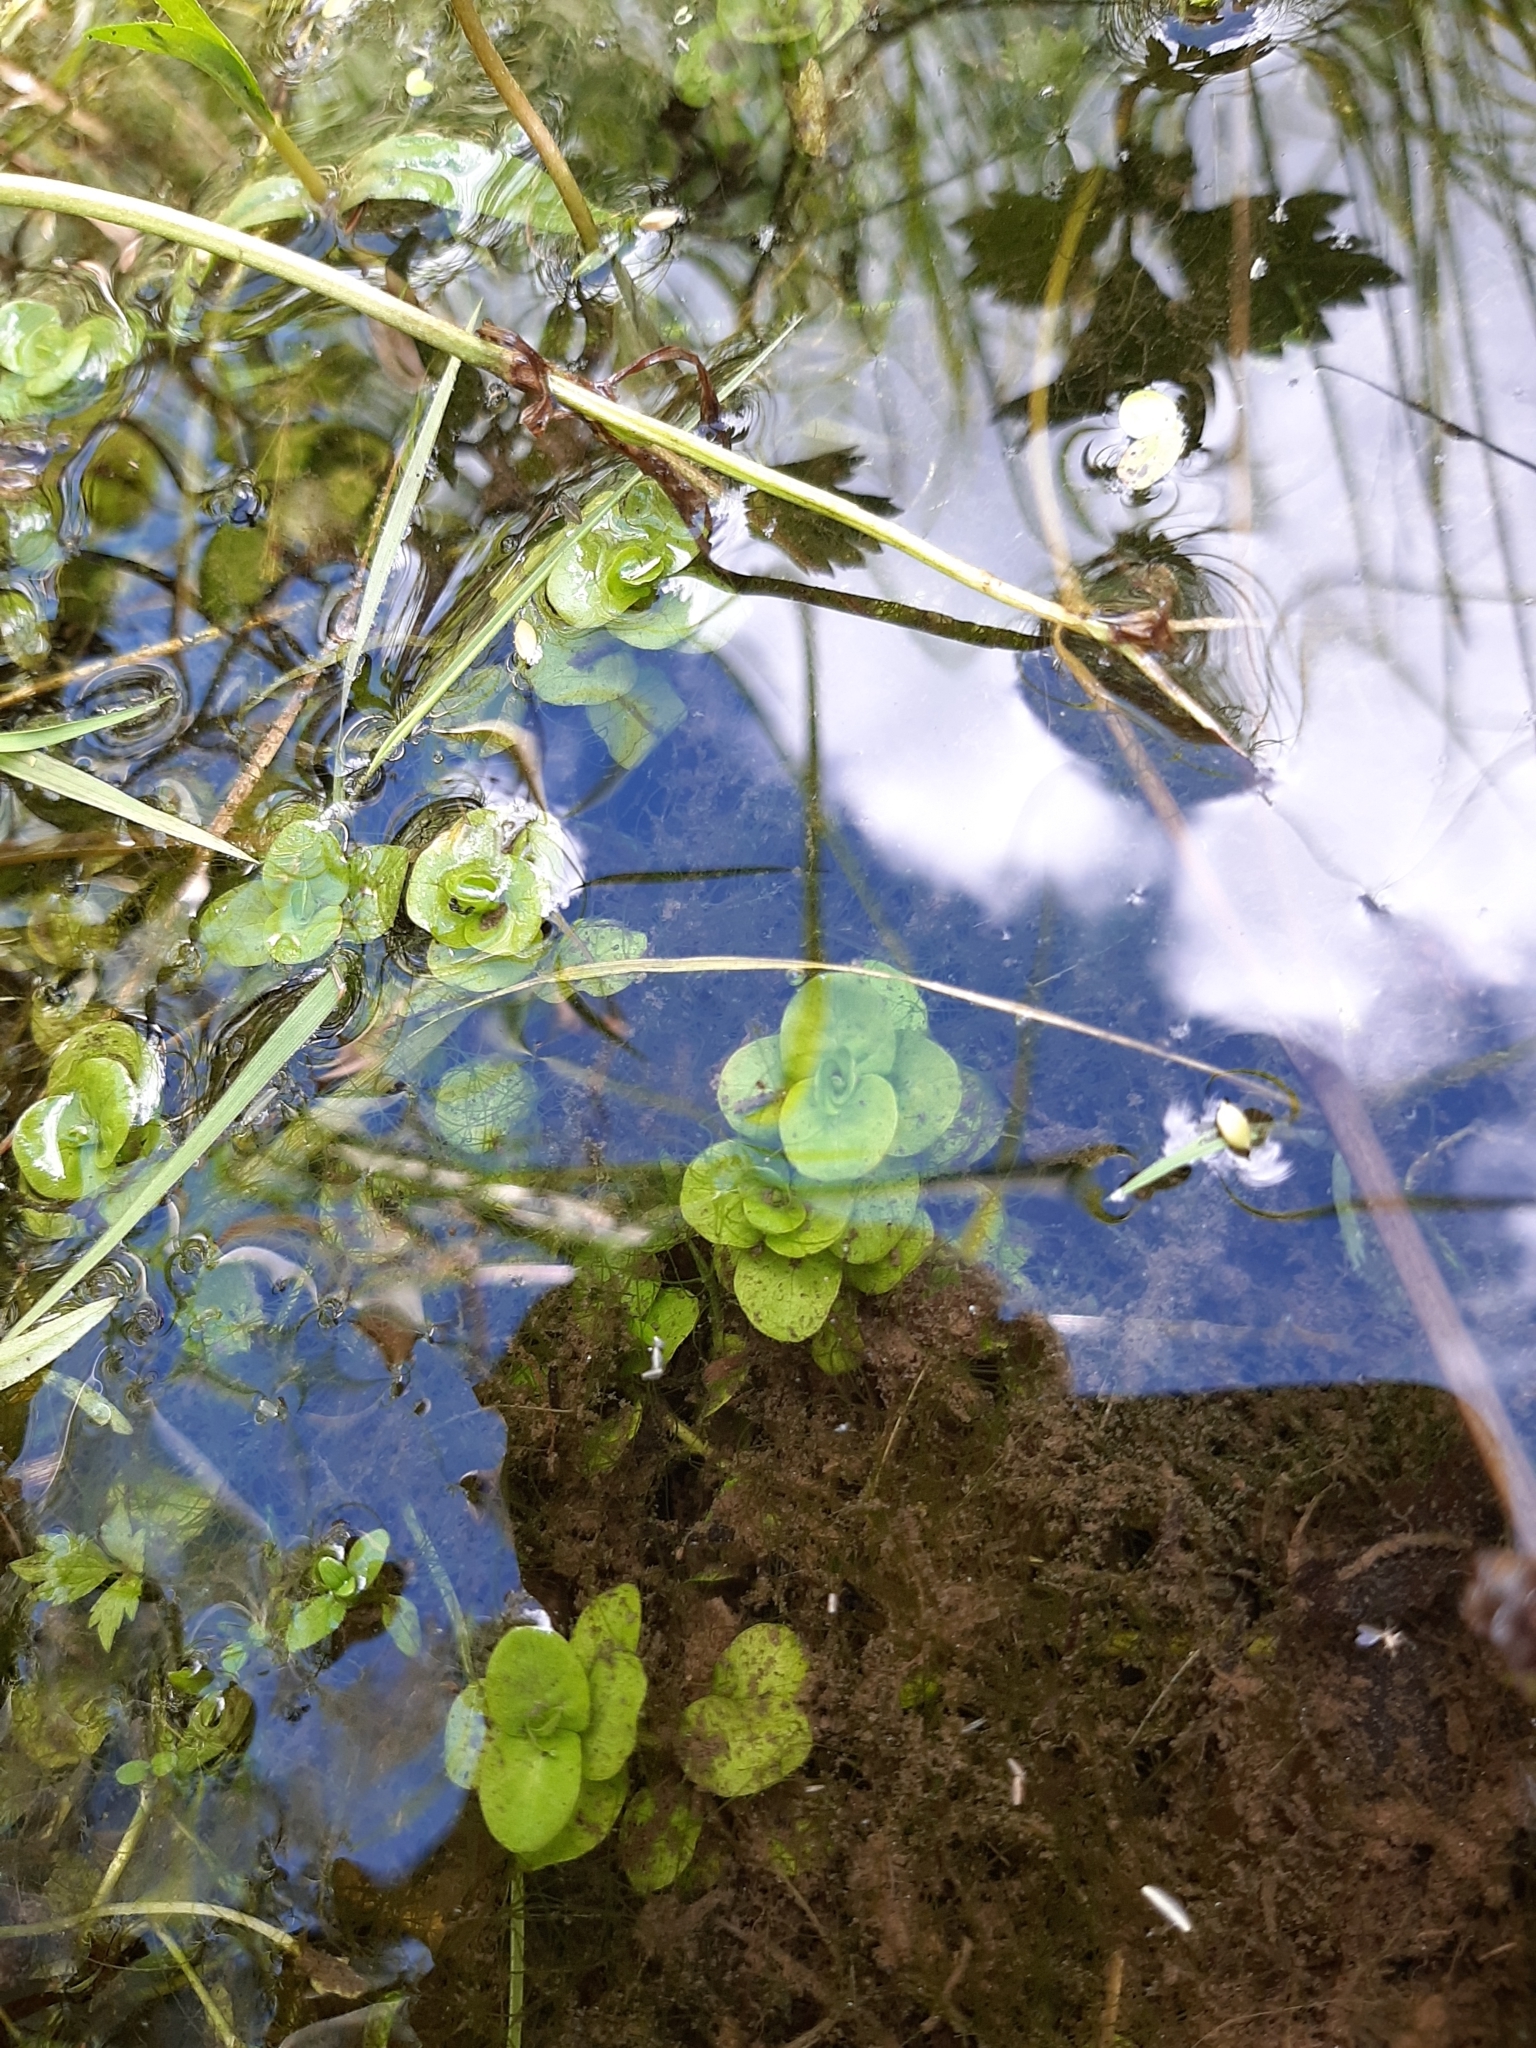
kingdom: Plantae
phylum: Tracheophyta
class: Magnoliopsida
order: Ericales
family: Primulaceae
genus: Lysimachia
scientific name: Lysimachia nummularia
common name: Moneywort
